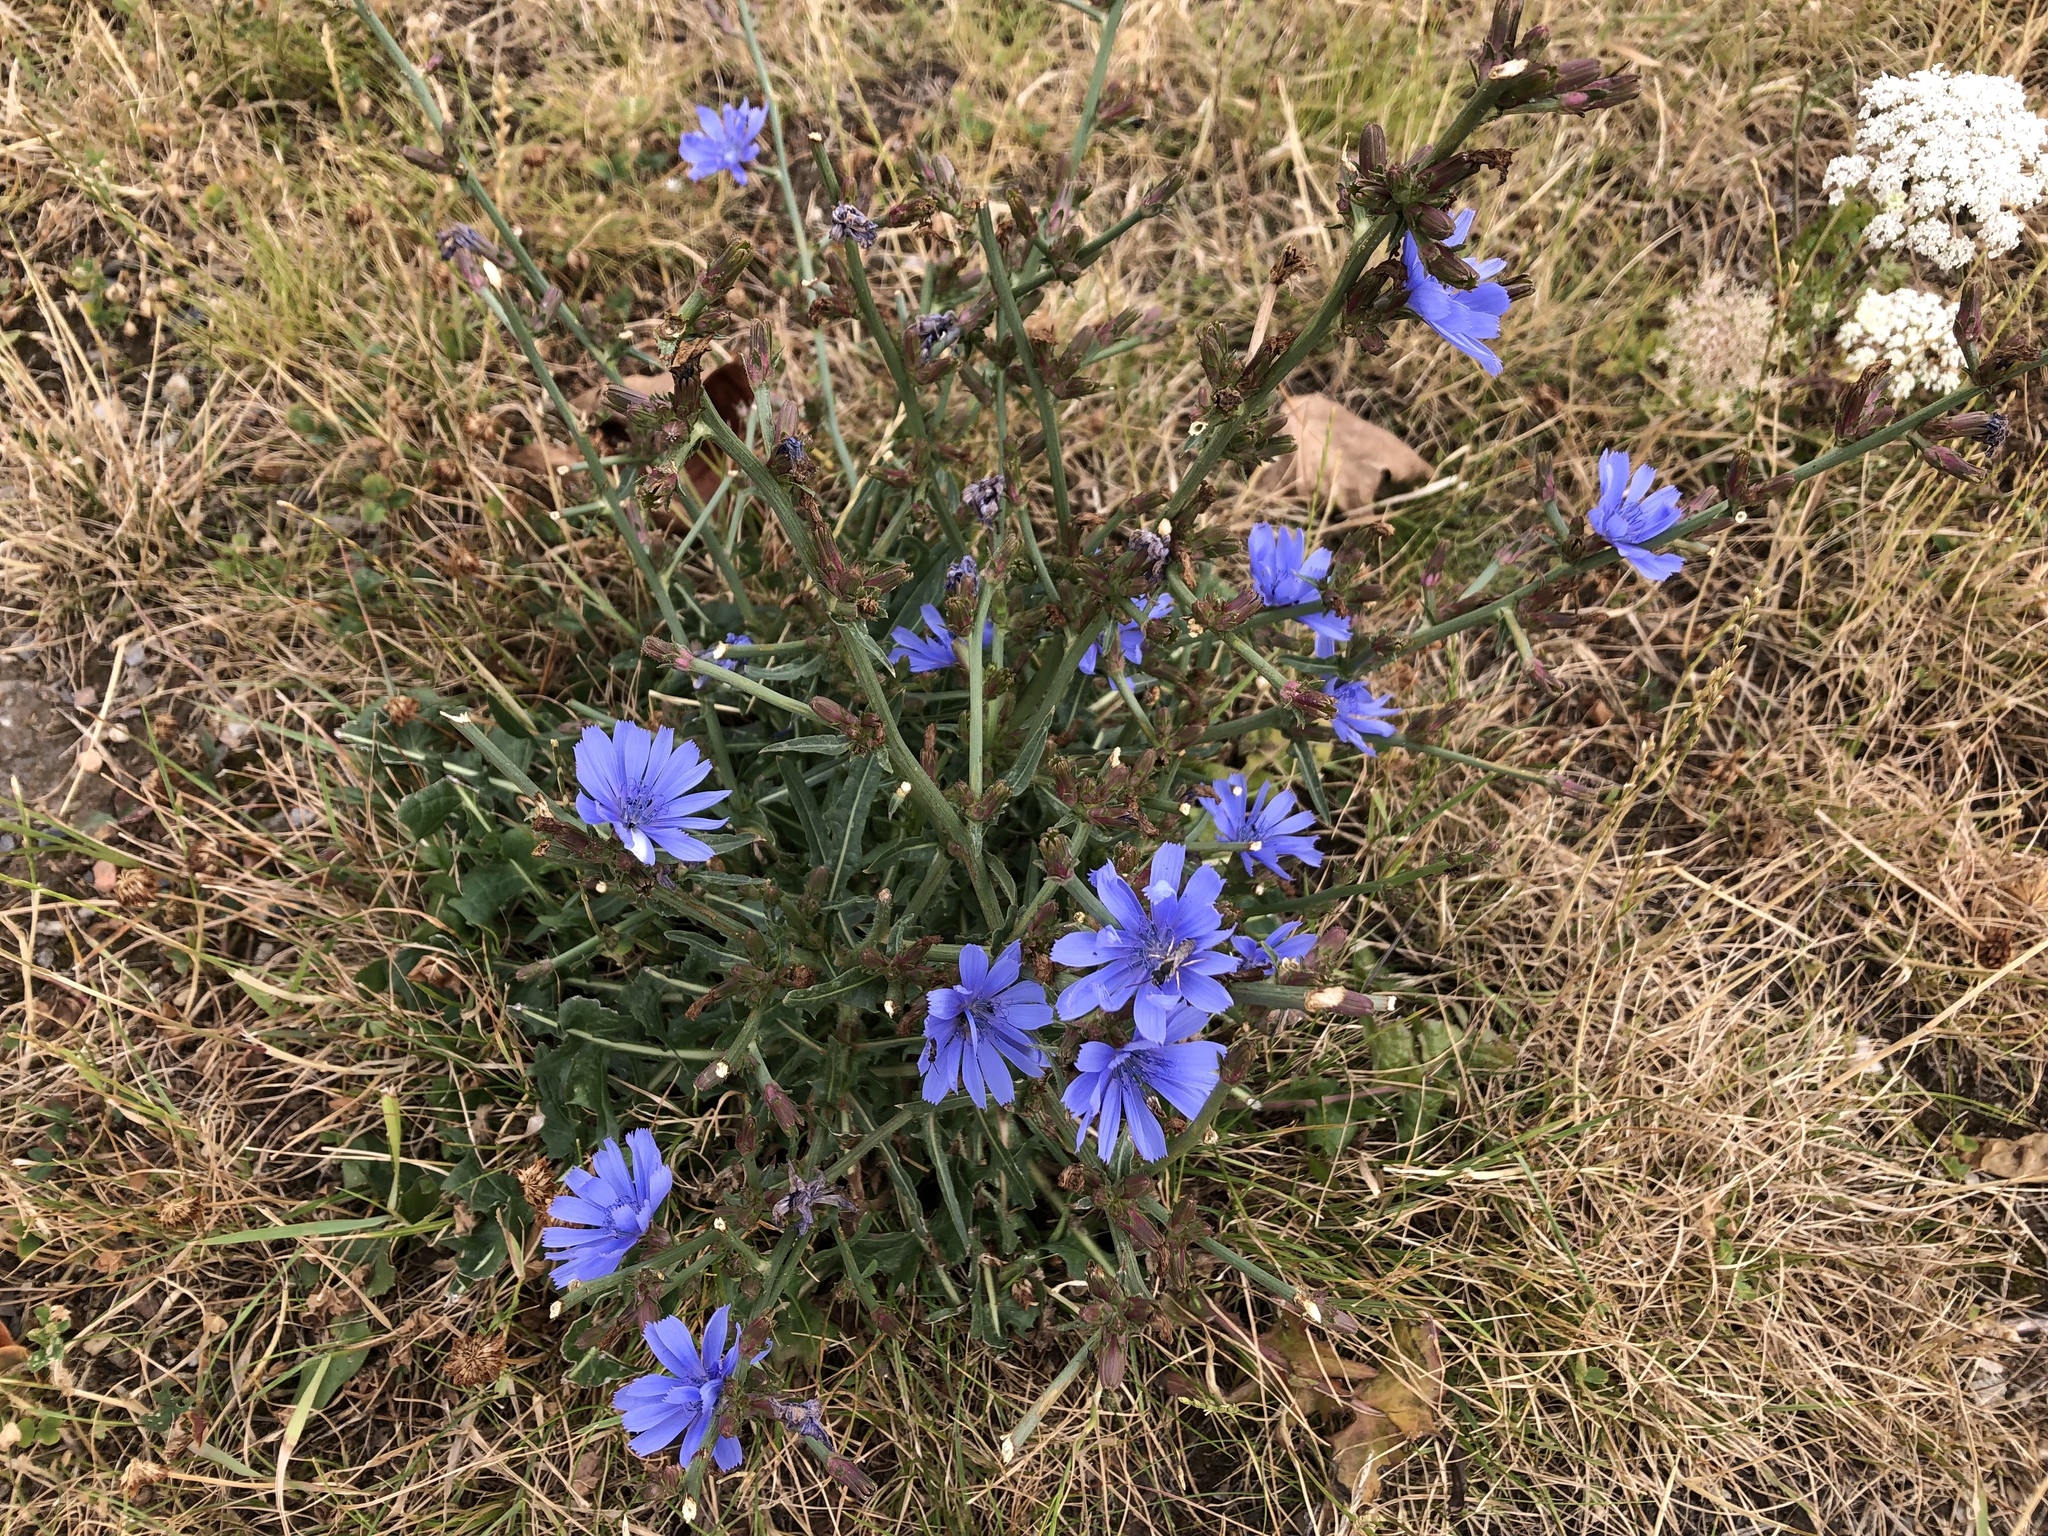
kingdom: Plantae
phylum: Tracheophyta
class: Magnoliopsida
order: Asterales
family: Asteraceae
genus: Cichorium
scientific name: Cichorium intybus
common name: Chicory
